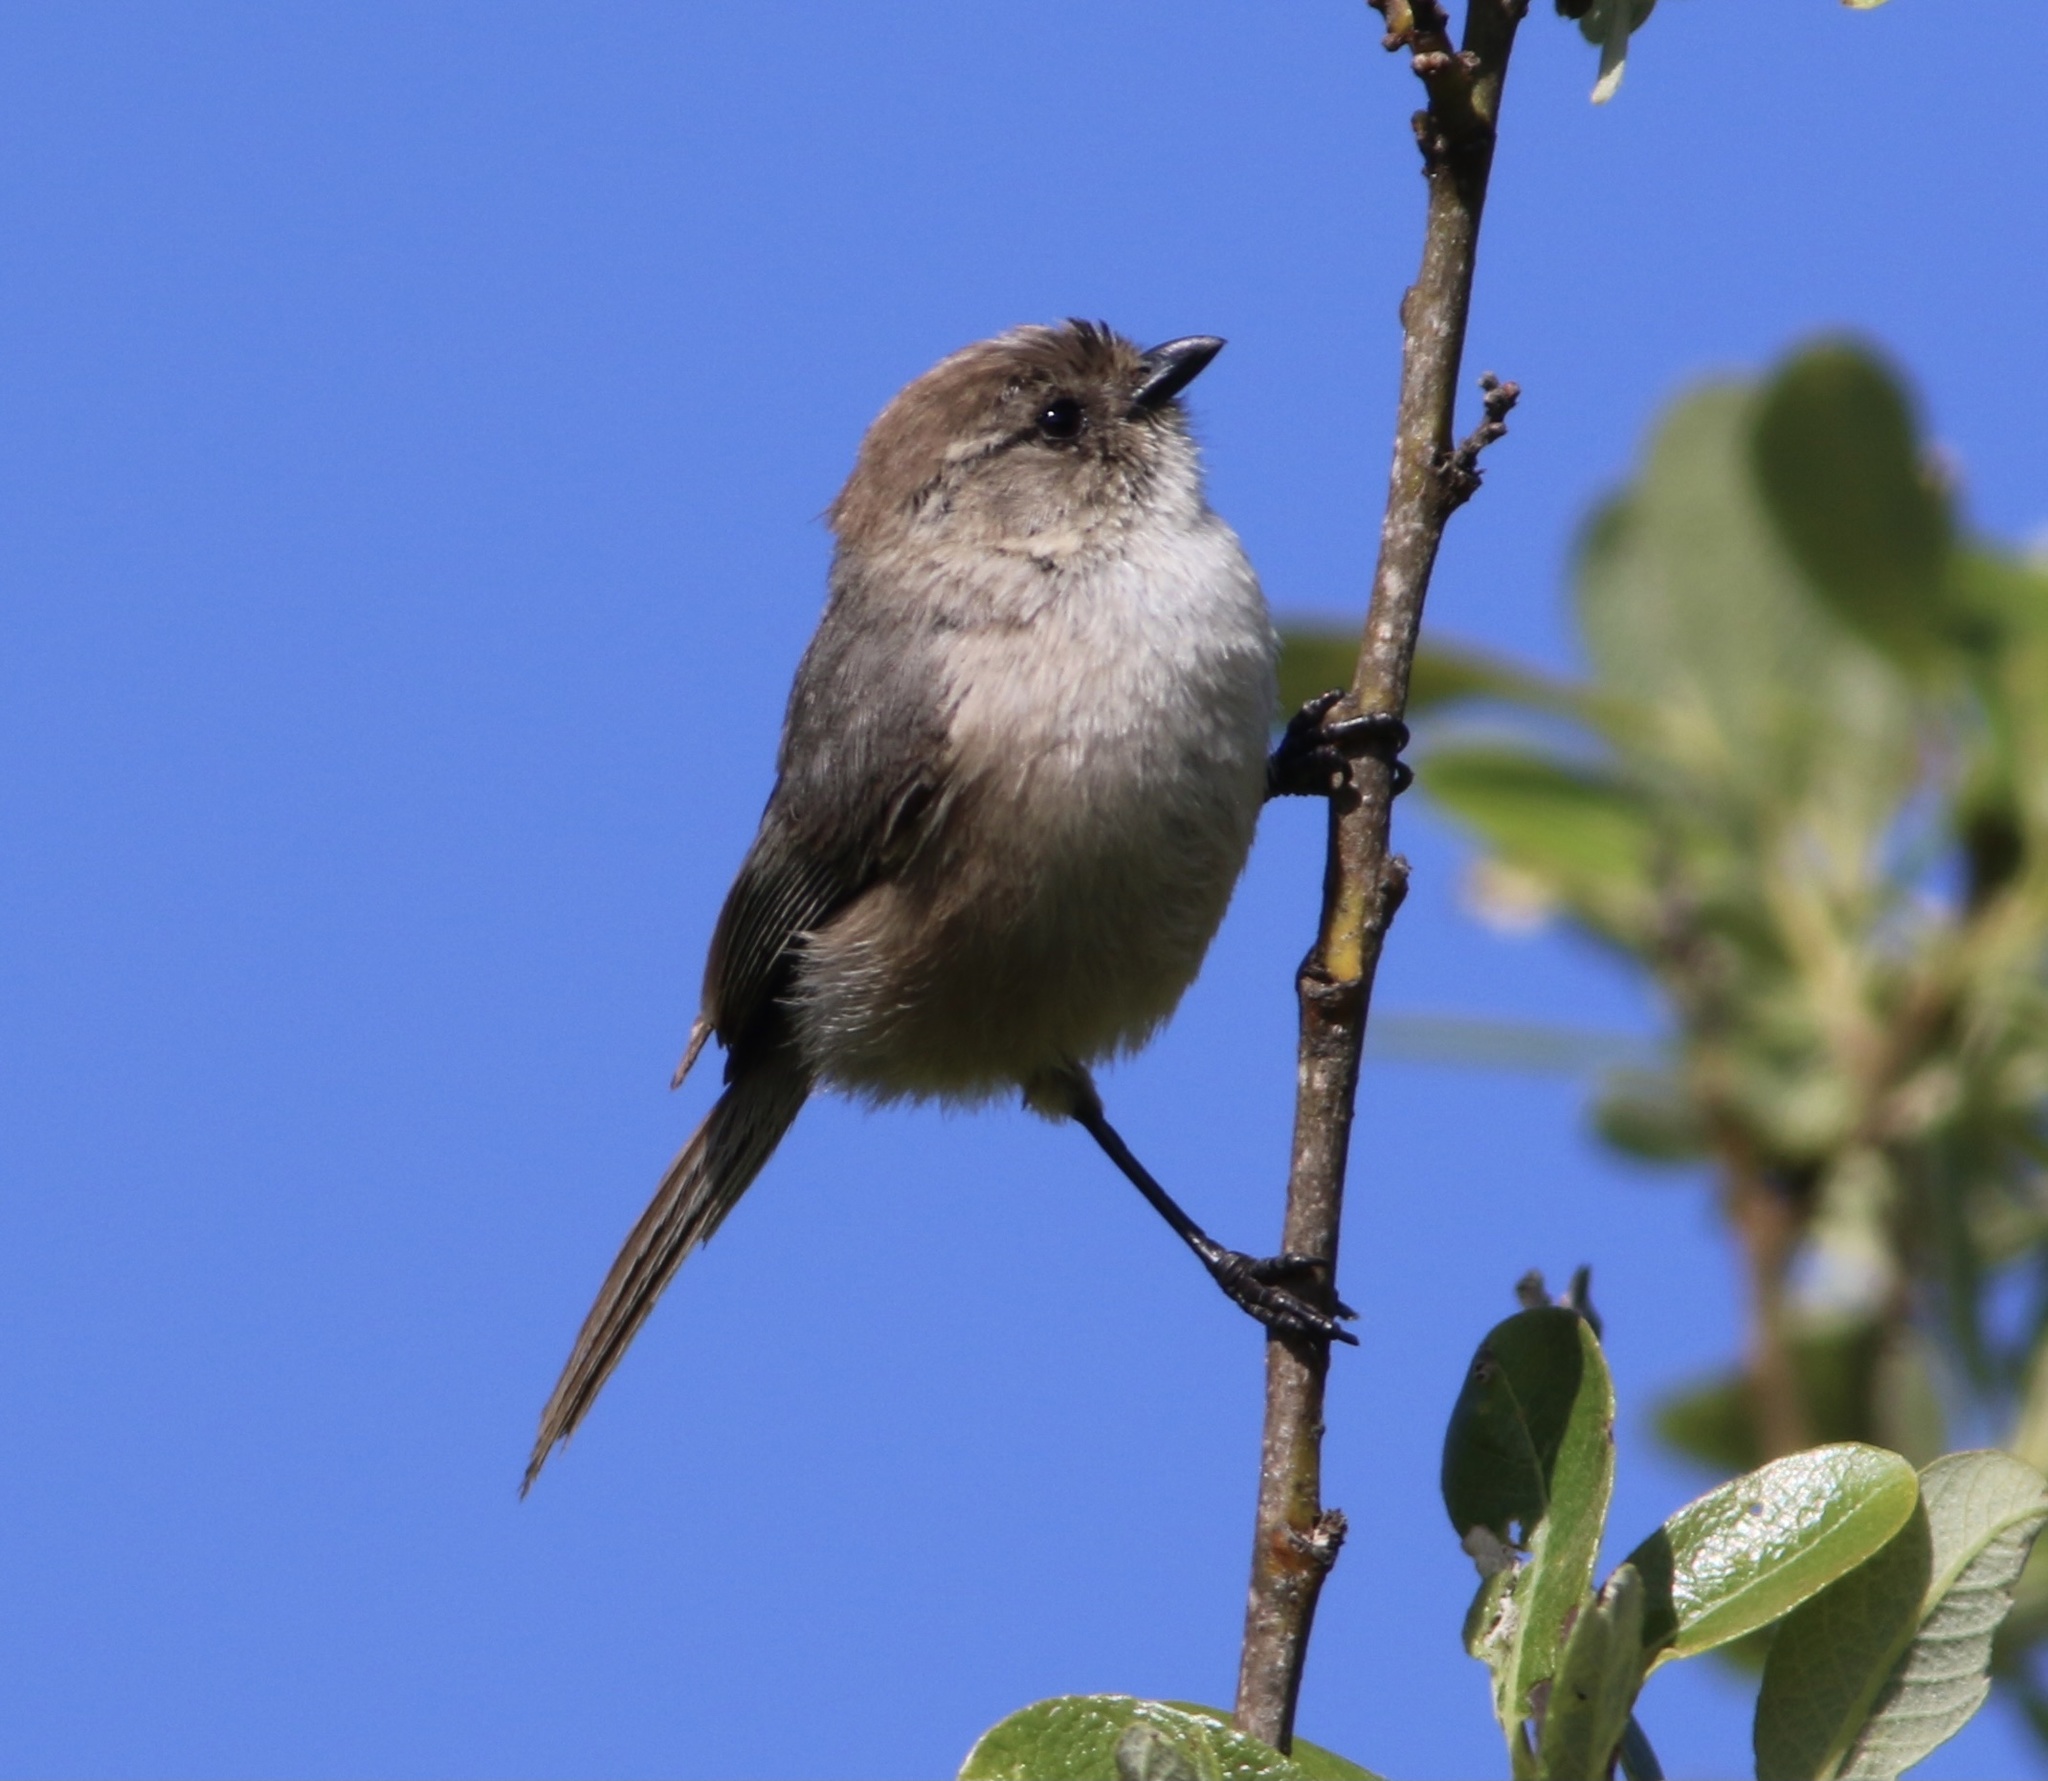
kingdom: Animalia
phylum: Chordata
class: Aves
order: Passeriformes
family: Aegithalidae
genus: Psaltriparus
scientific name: Psaltriparus minimus
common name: American bushtit
